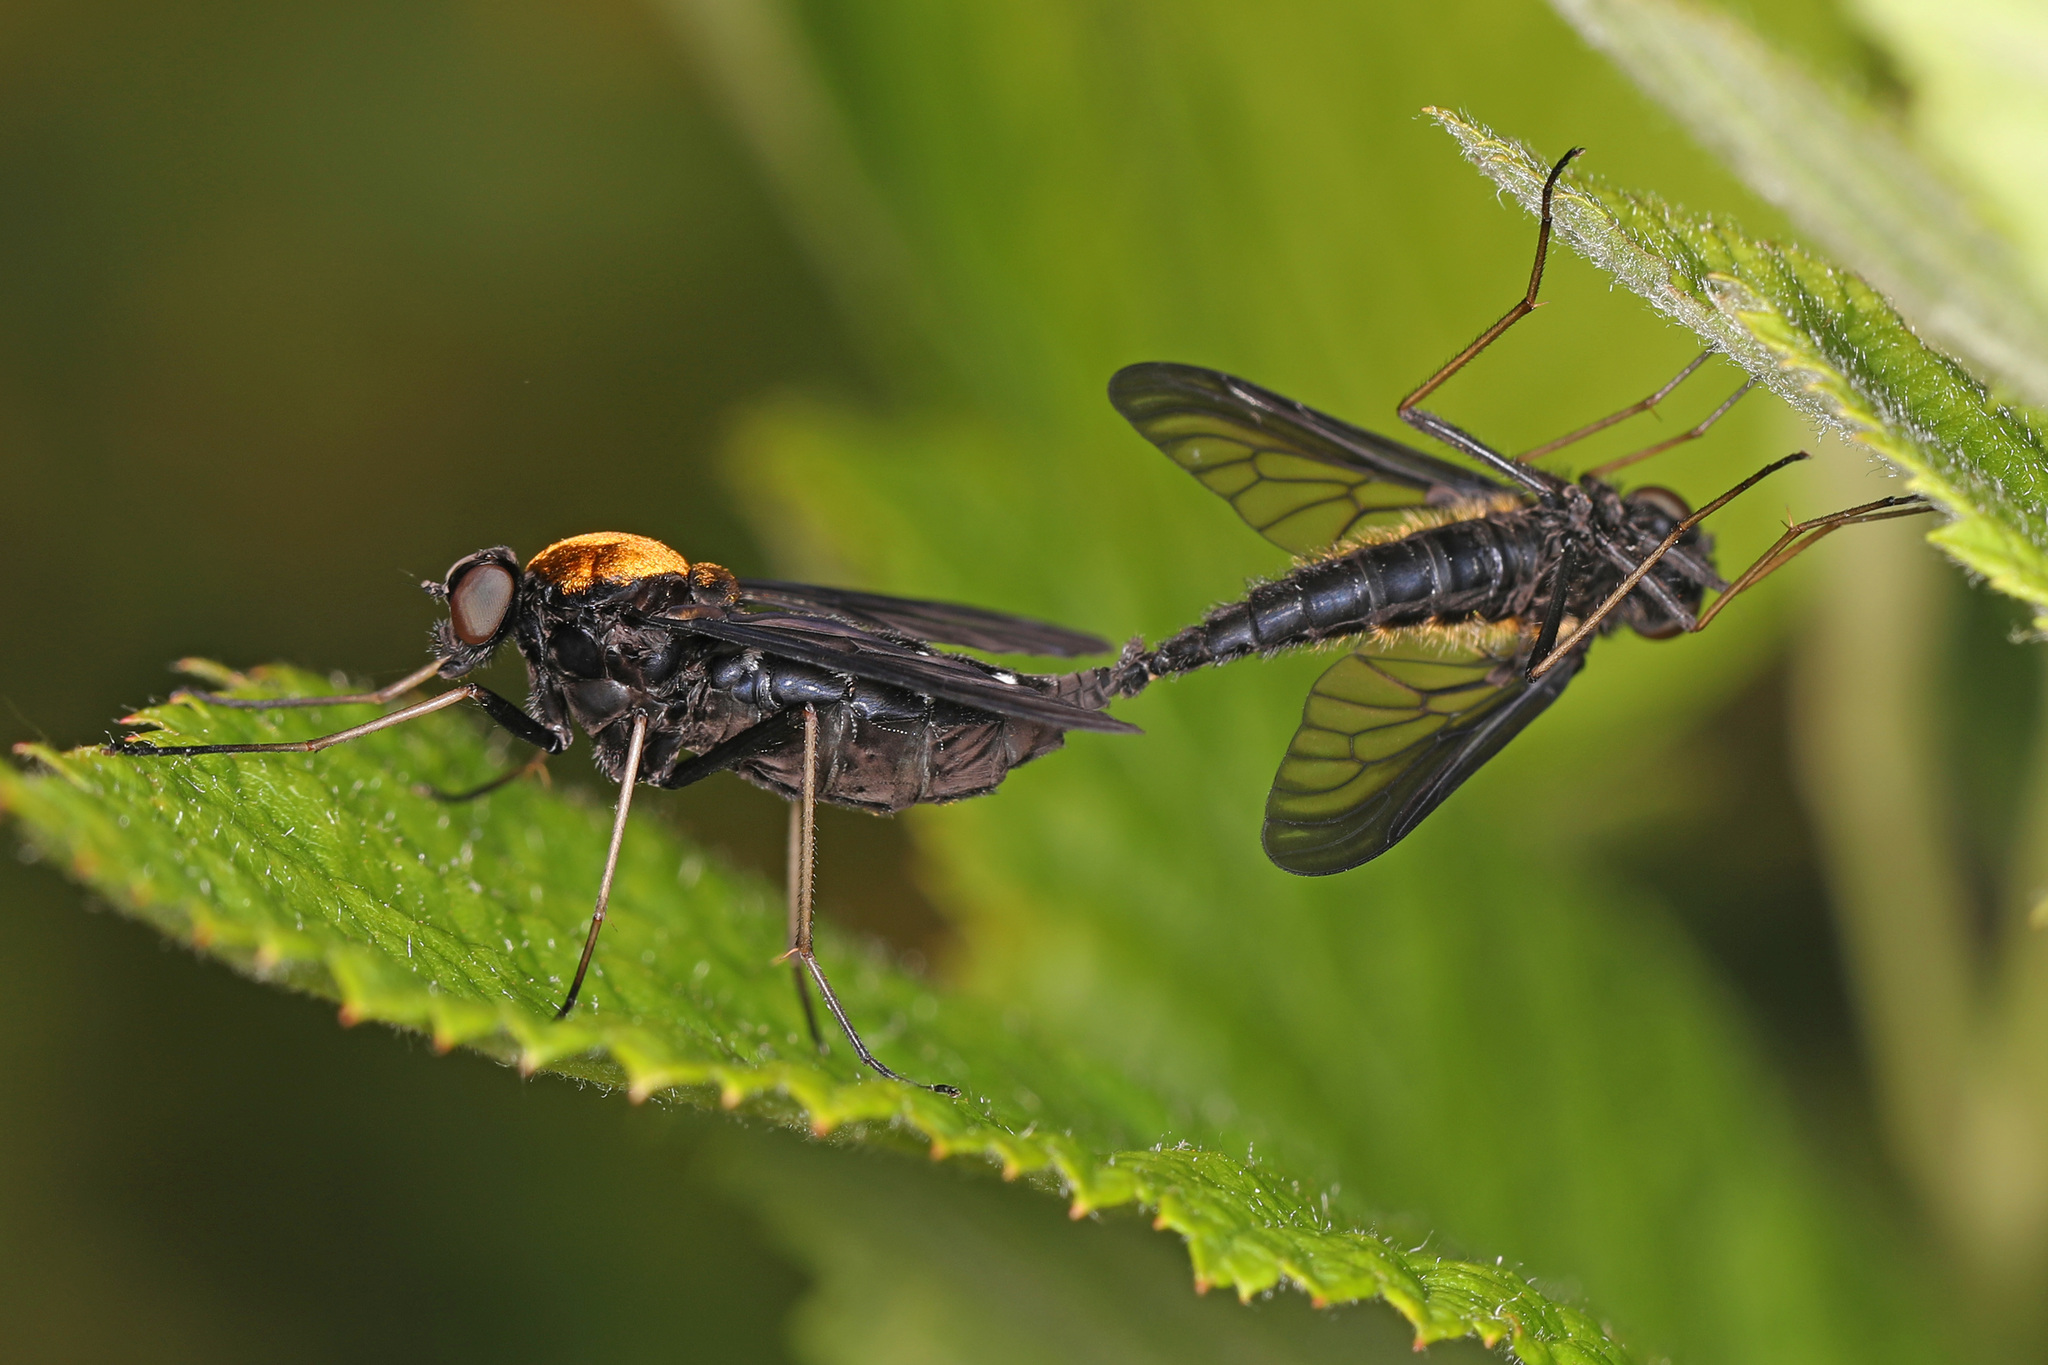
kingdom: Animalia
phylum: Arthropoda
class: Insecta
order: Diptera
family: Rhagionidae
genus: Chrysopilus
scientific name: Chrysopilus thoracicus
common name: Golden-backed snipe fly
